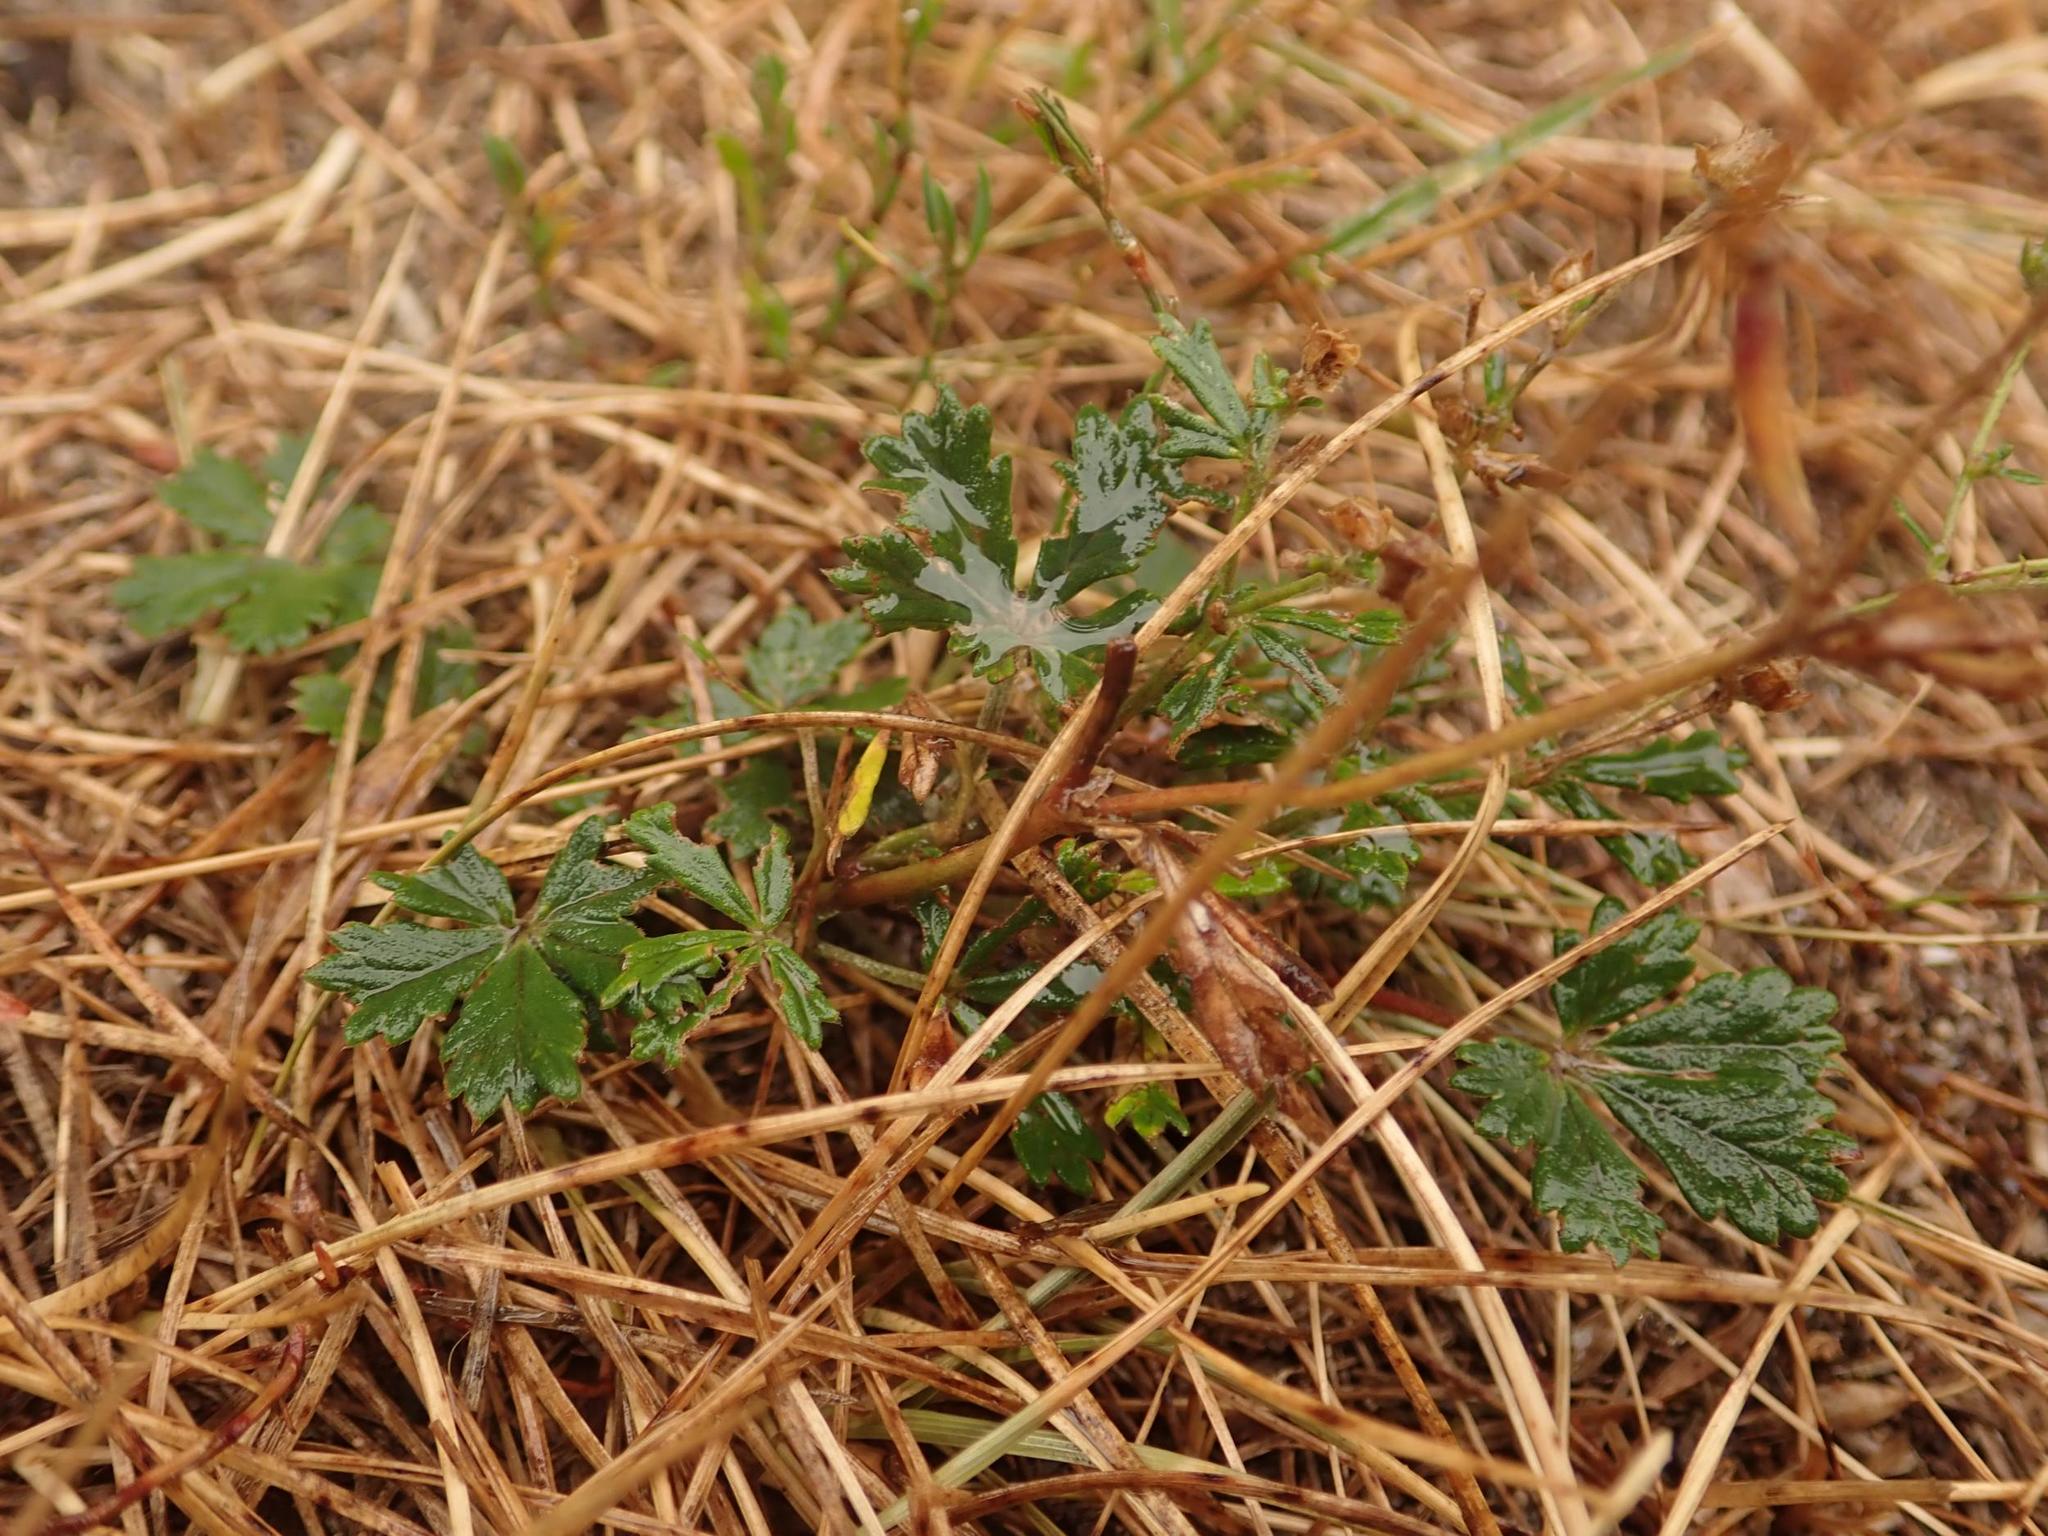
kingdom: Plantae
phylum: Tracheophyta
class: Magnoliopsida
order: Rosales
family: Rosaceae
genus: Potentilla
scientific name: Potentilla argentea
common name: Hoary cinquefoil
